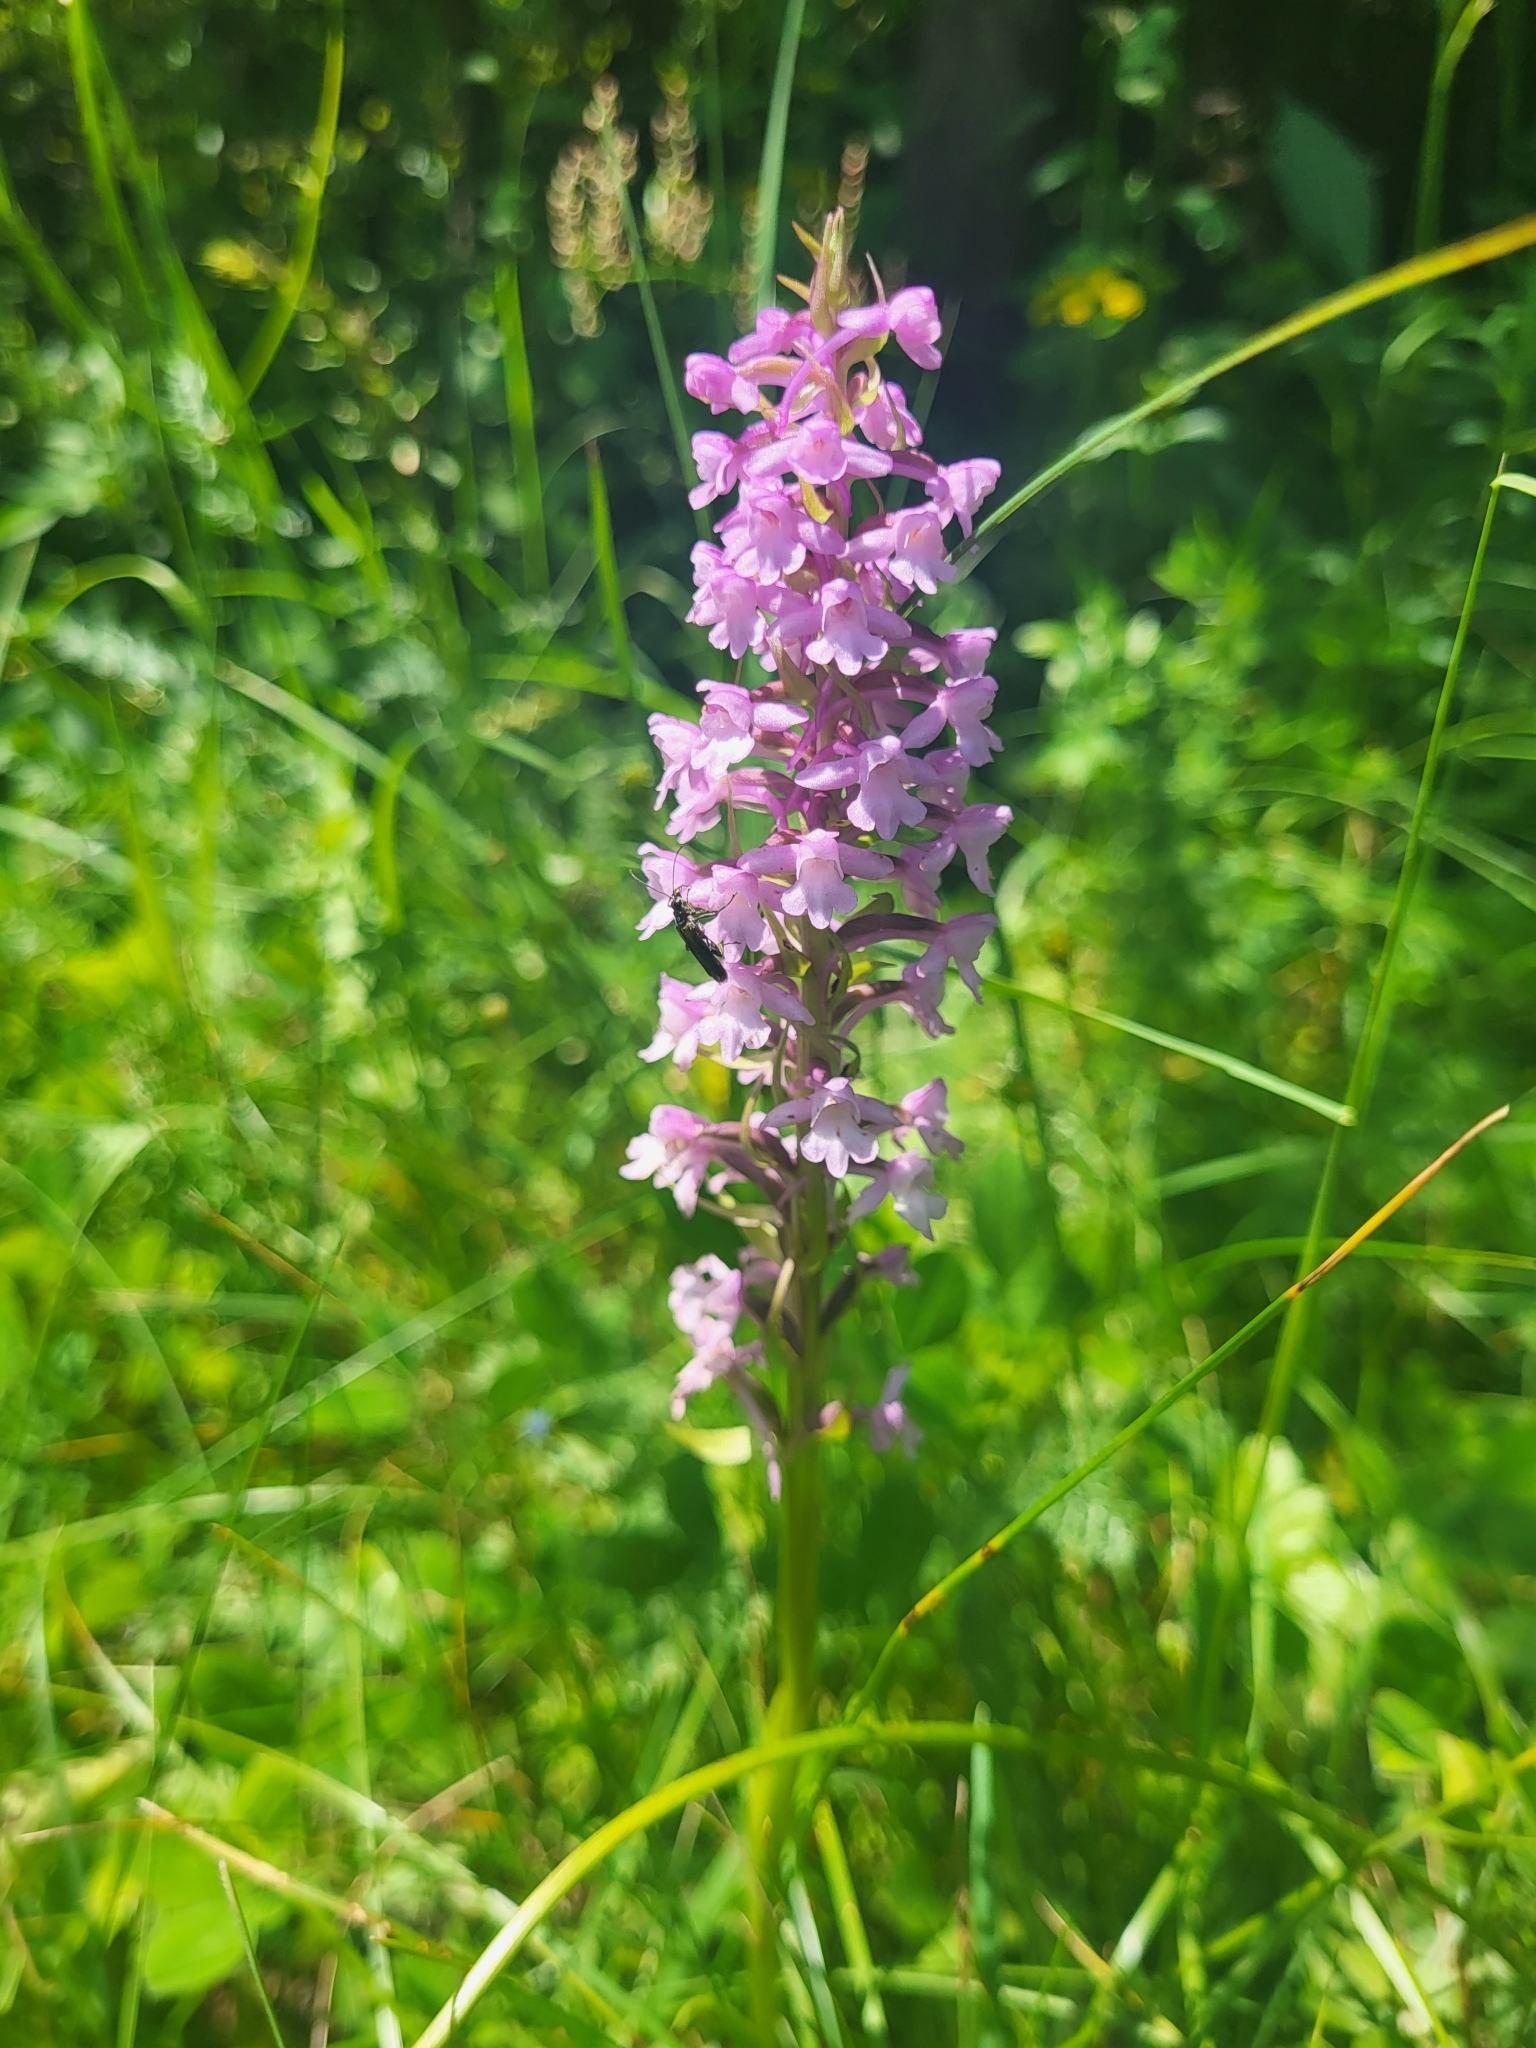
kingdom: Plantae
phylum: Tracheophyta
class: Liliopsida
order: Asparagales
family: Orchidaceae
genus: Gymnadenia
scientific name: Gymnadenia conopsea
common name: Fragrant orchid
